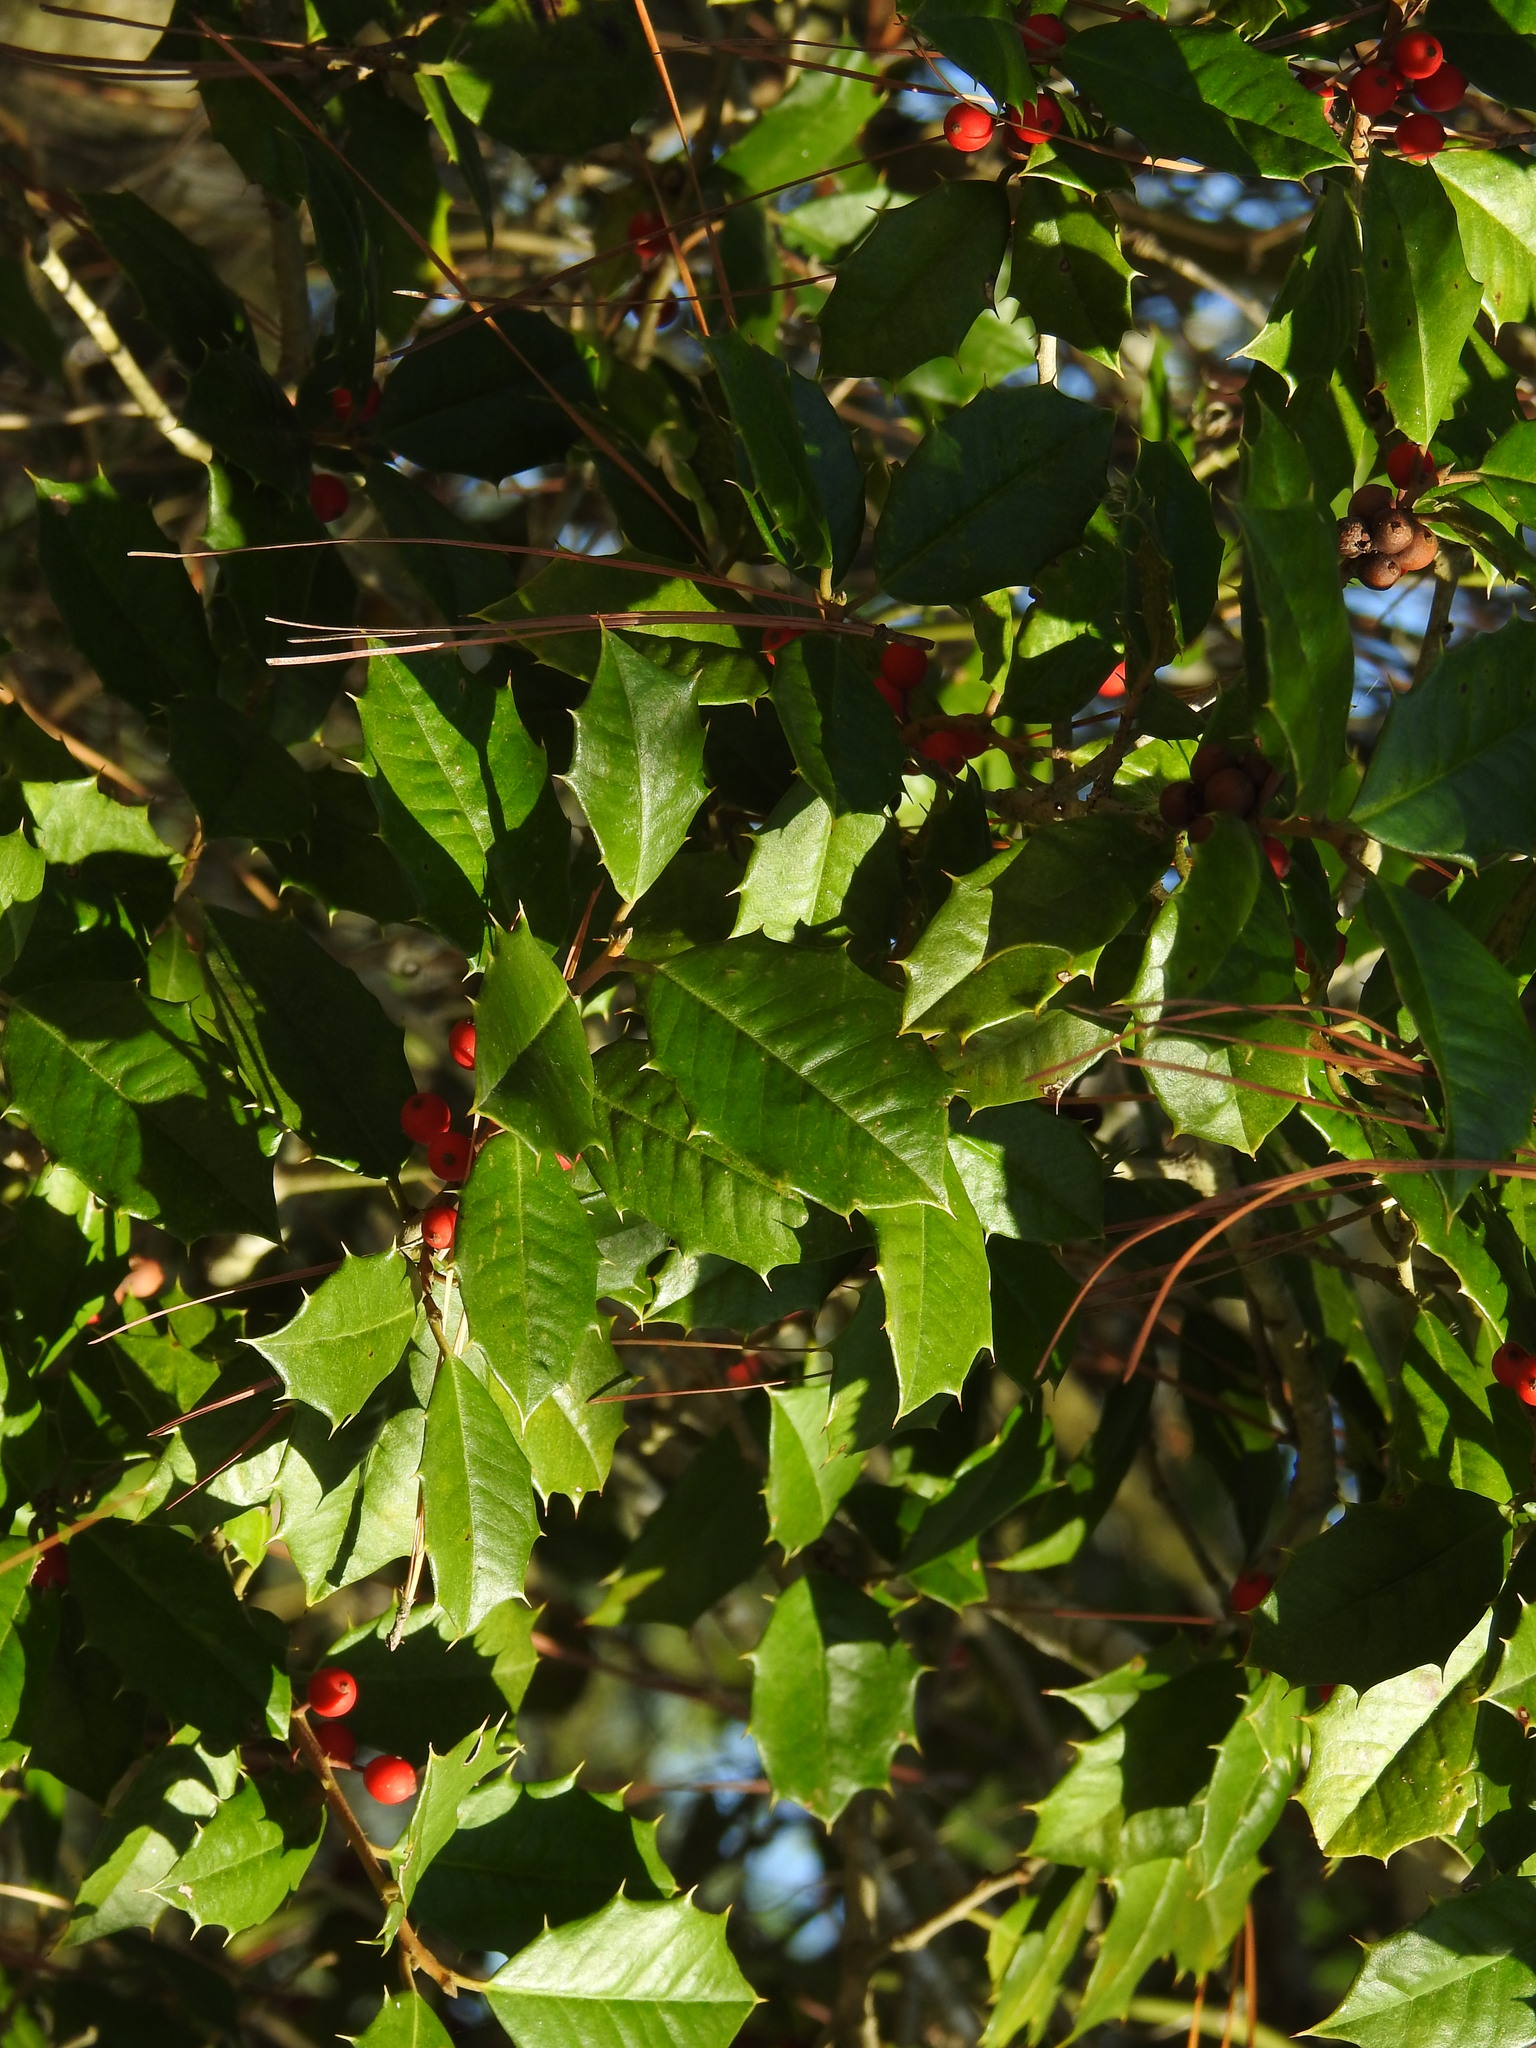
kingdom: Plantae
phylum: Tracheophyta
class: Magnoliopsida
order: Aquifoliales
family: Aquifoliaceae
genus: Ilex
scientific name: Ilex opaca
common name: American holly
